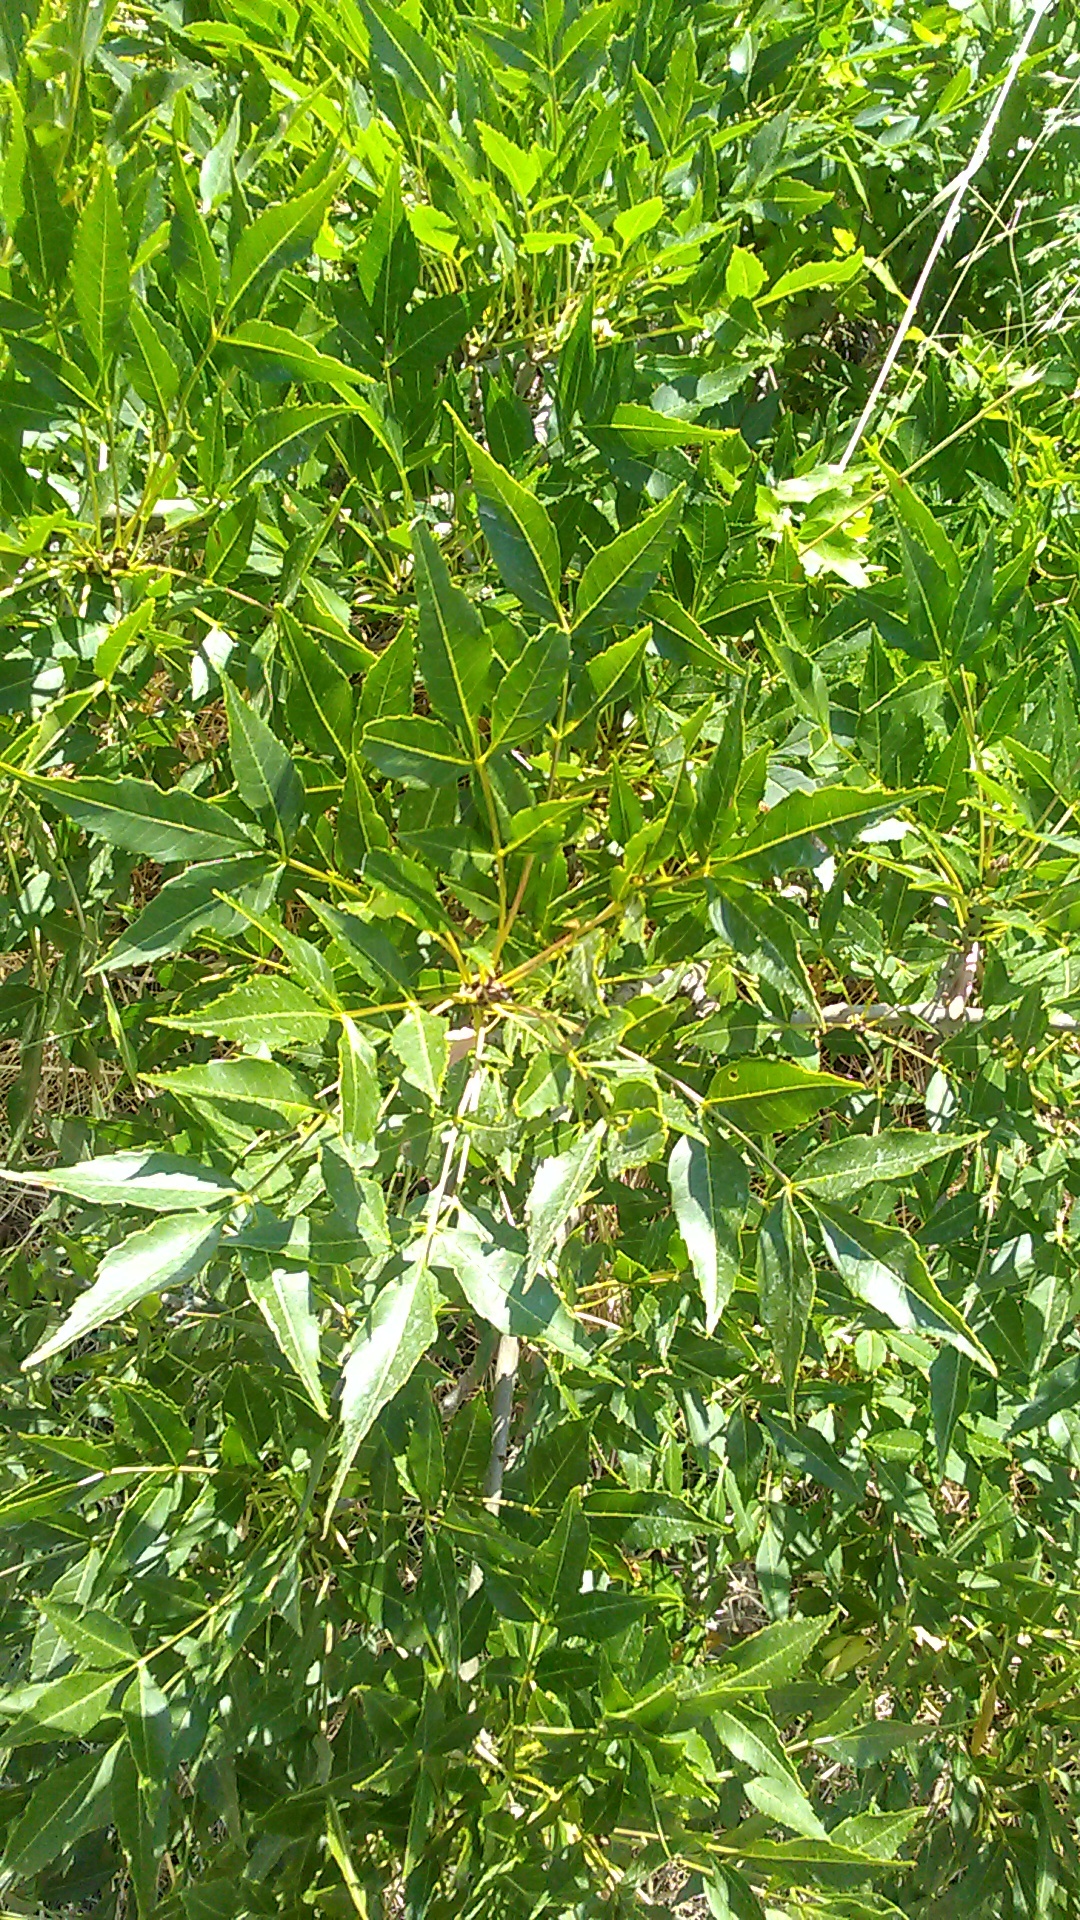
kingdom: Plantae
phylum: Tracheophyta
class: Magnoliopsida
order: Lamiales
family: Oleaceae
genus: Fraxinus
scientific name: Fraxinus excelsior
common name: European ash
